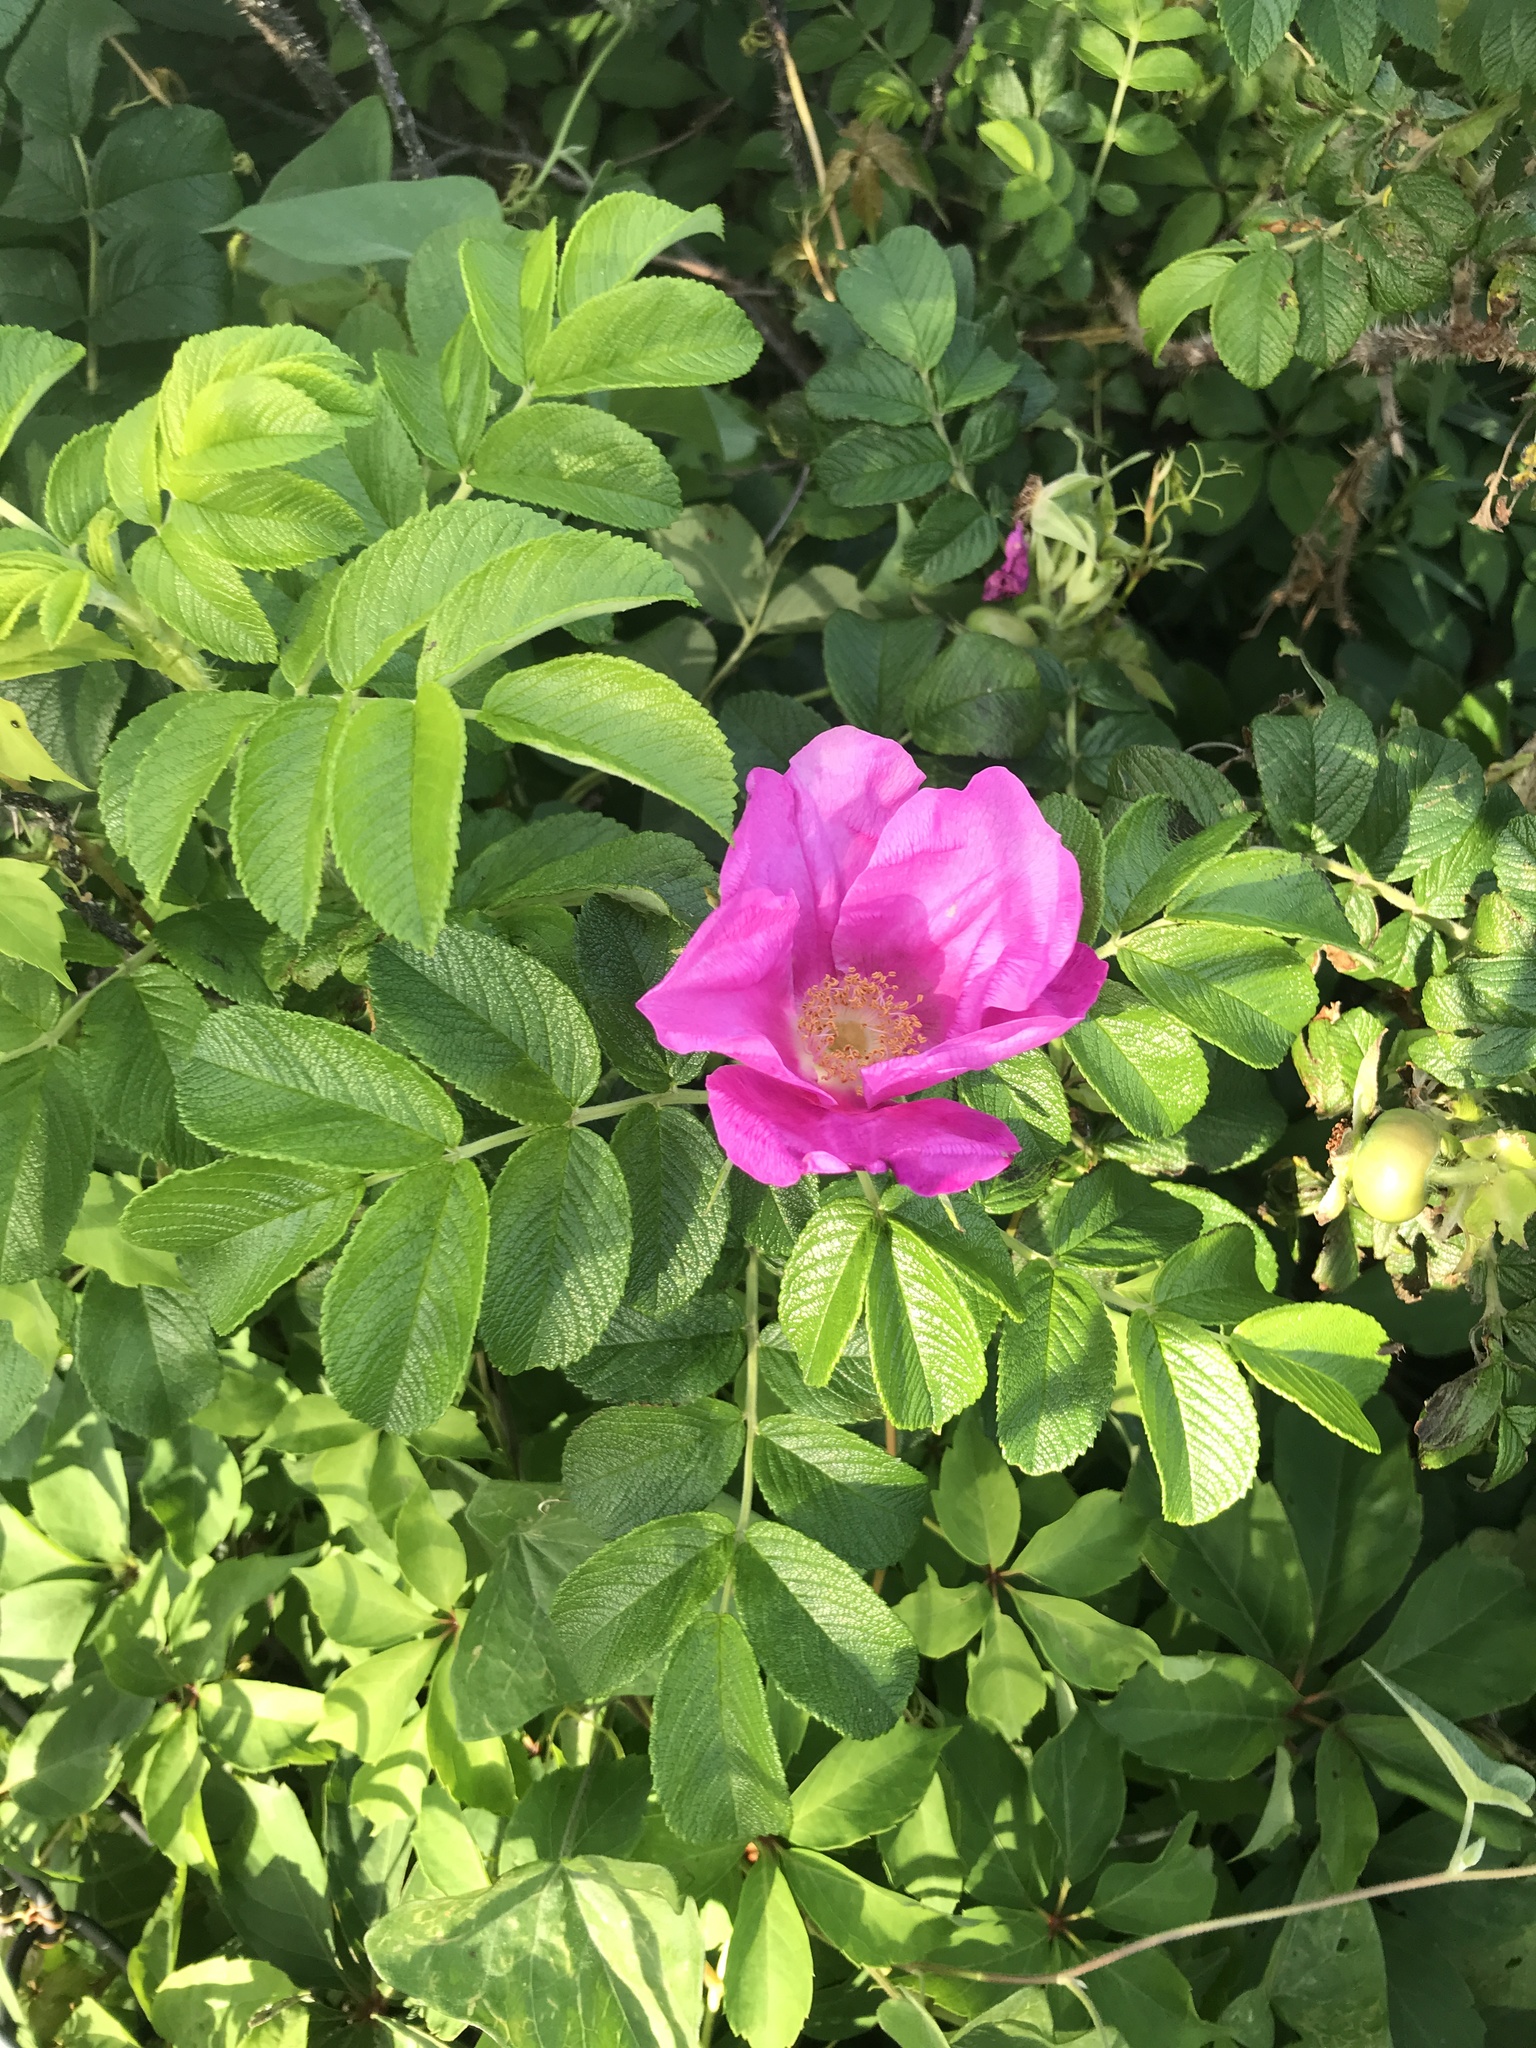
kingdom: Plantae
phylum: Tracheophyta
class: Magnoliopsida
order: Rosales
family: Rosaceae
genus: Rosa
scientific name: Rosa rugosa
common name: Japanese rose
